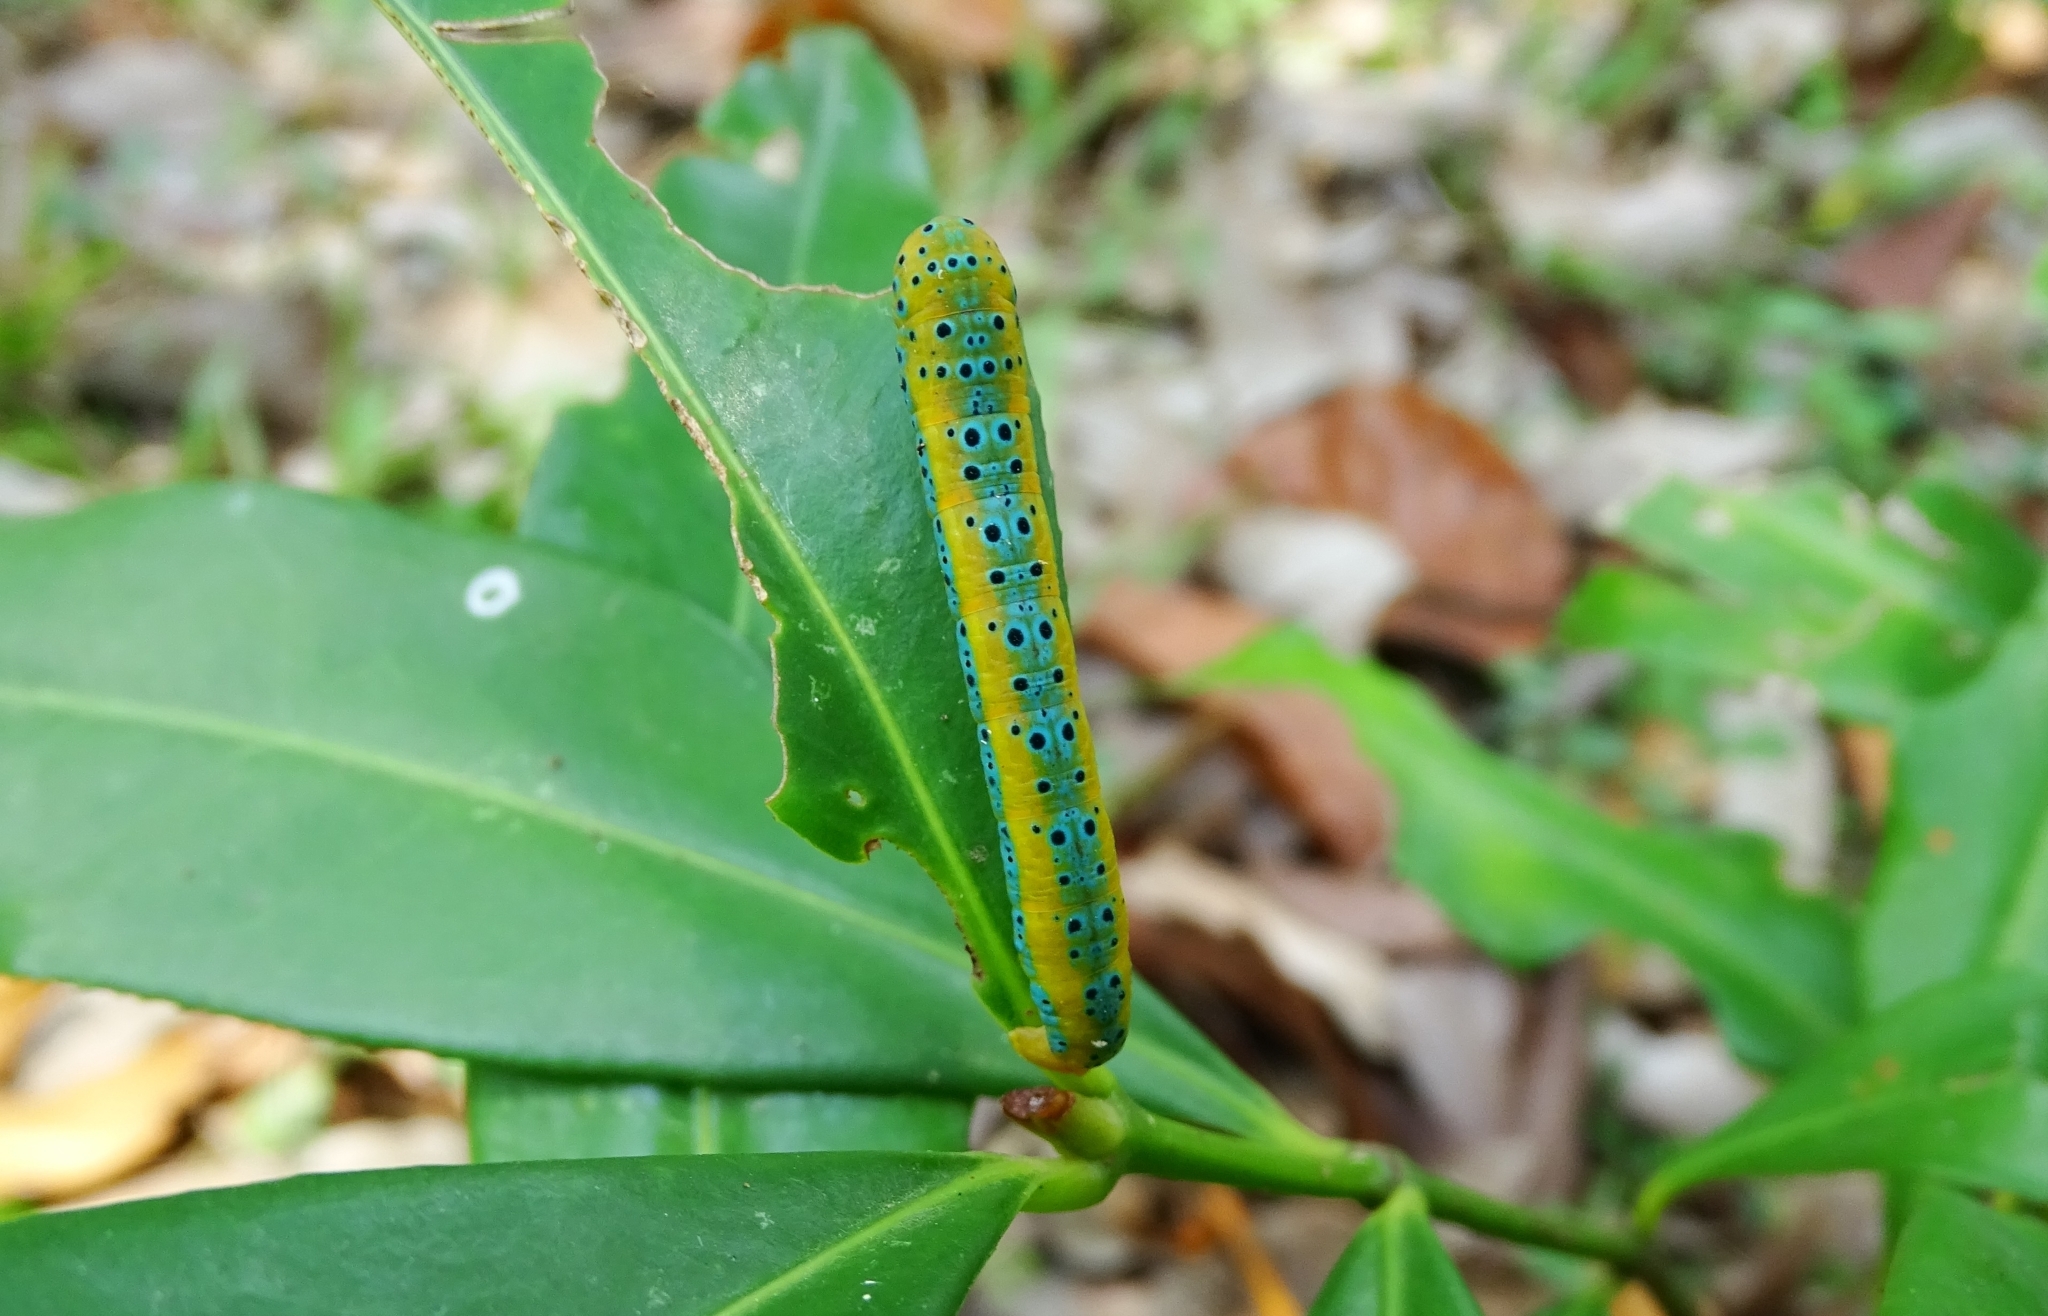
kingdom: Animalia
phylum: Arthropoda
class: Insecta
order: Lepidoptera
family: Geometridae
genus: Dysphania
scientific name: Dysphania percota
